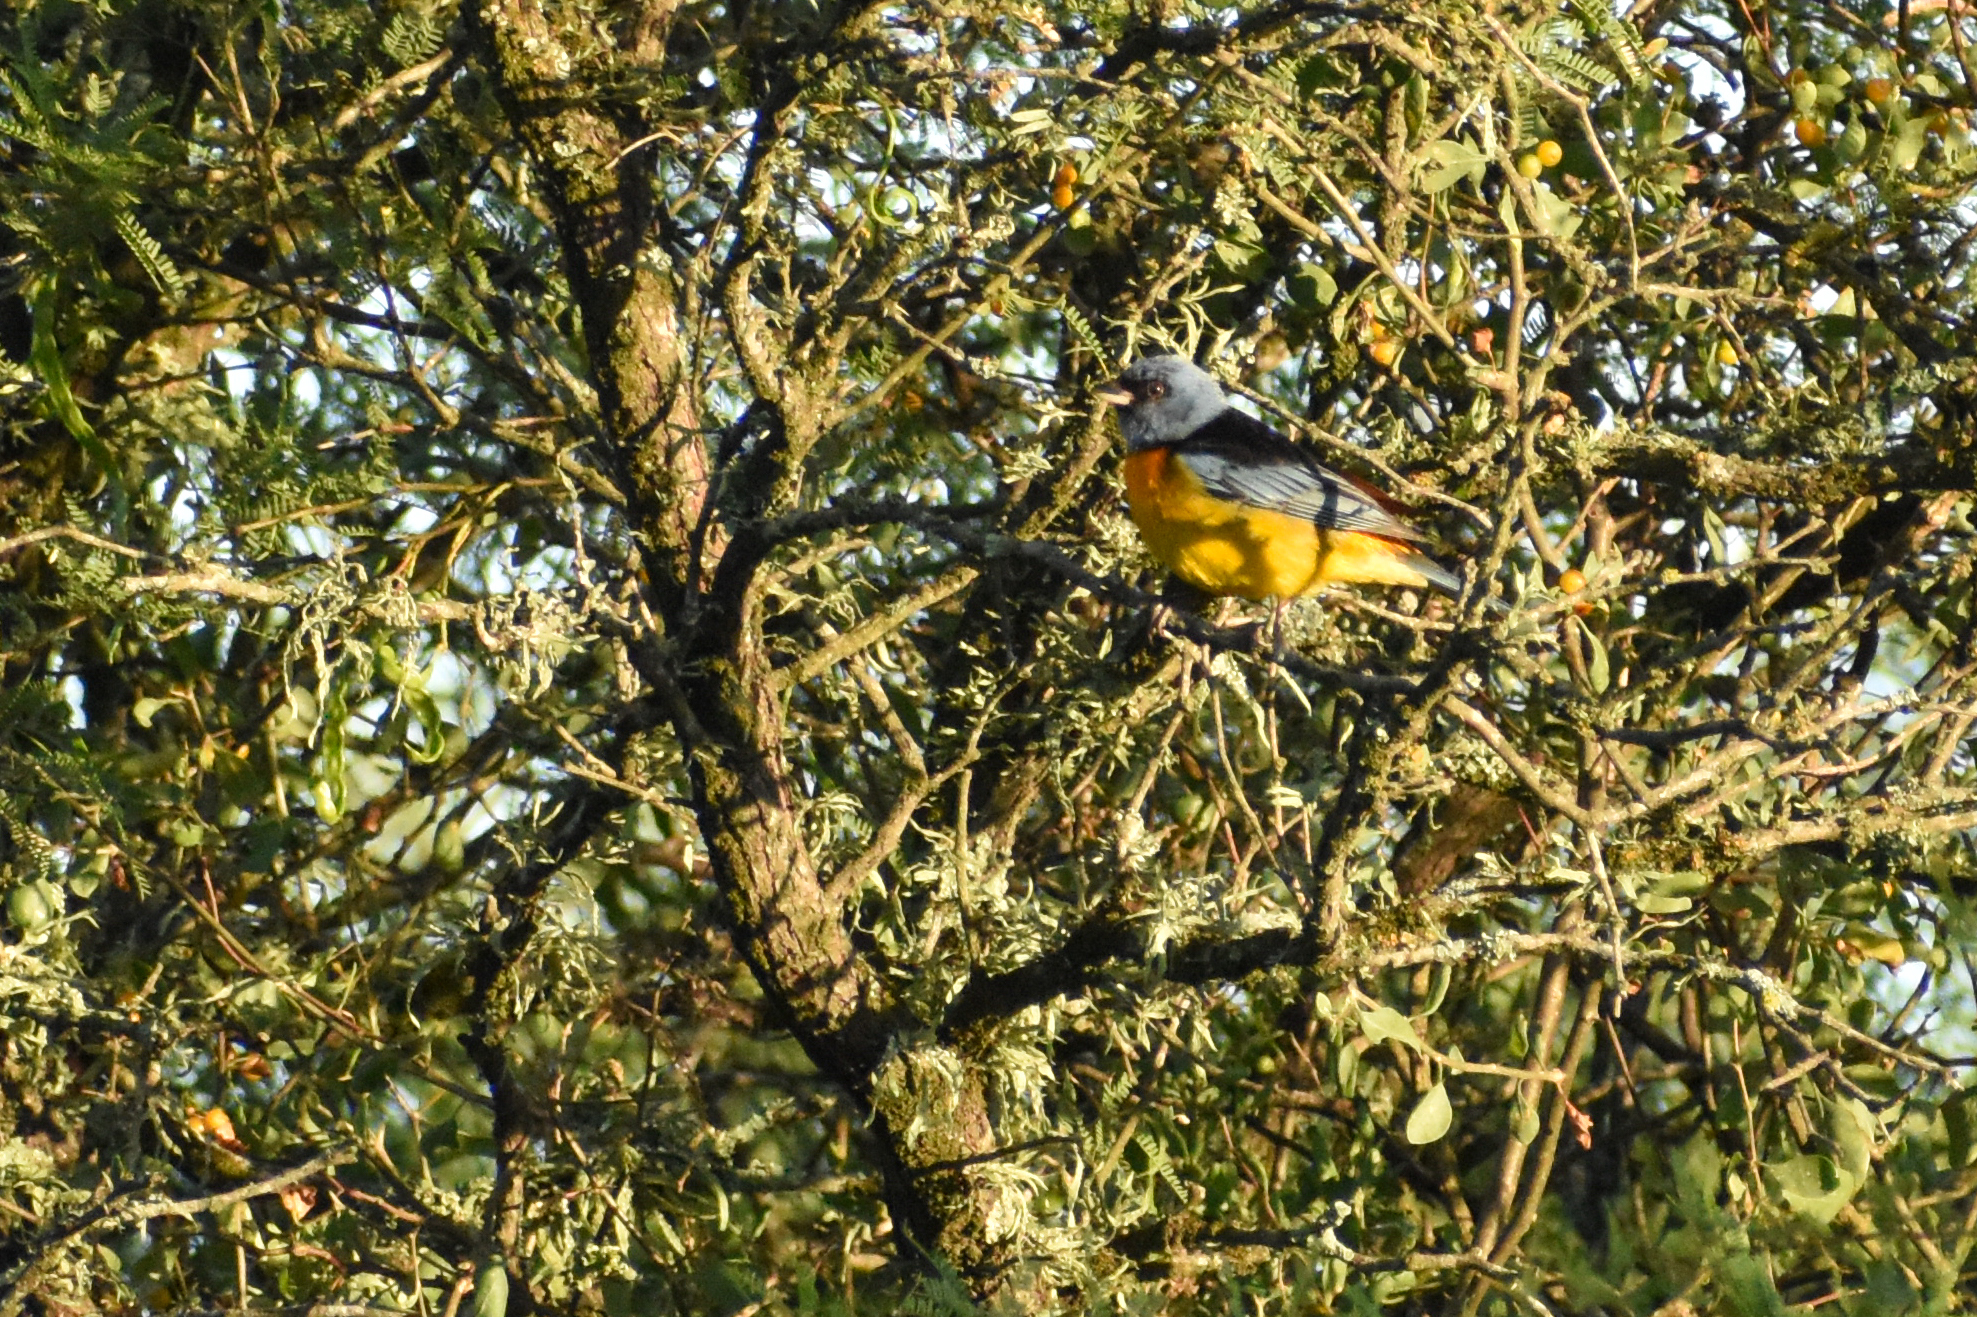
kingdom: Animalia
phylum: Chordata
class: Aves
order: Passeriformes
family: Thraupidae
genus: Rauenia
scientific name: Rauenia bonariensis
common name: Blue-and-yellow tanager
